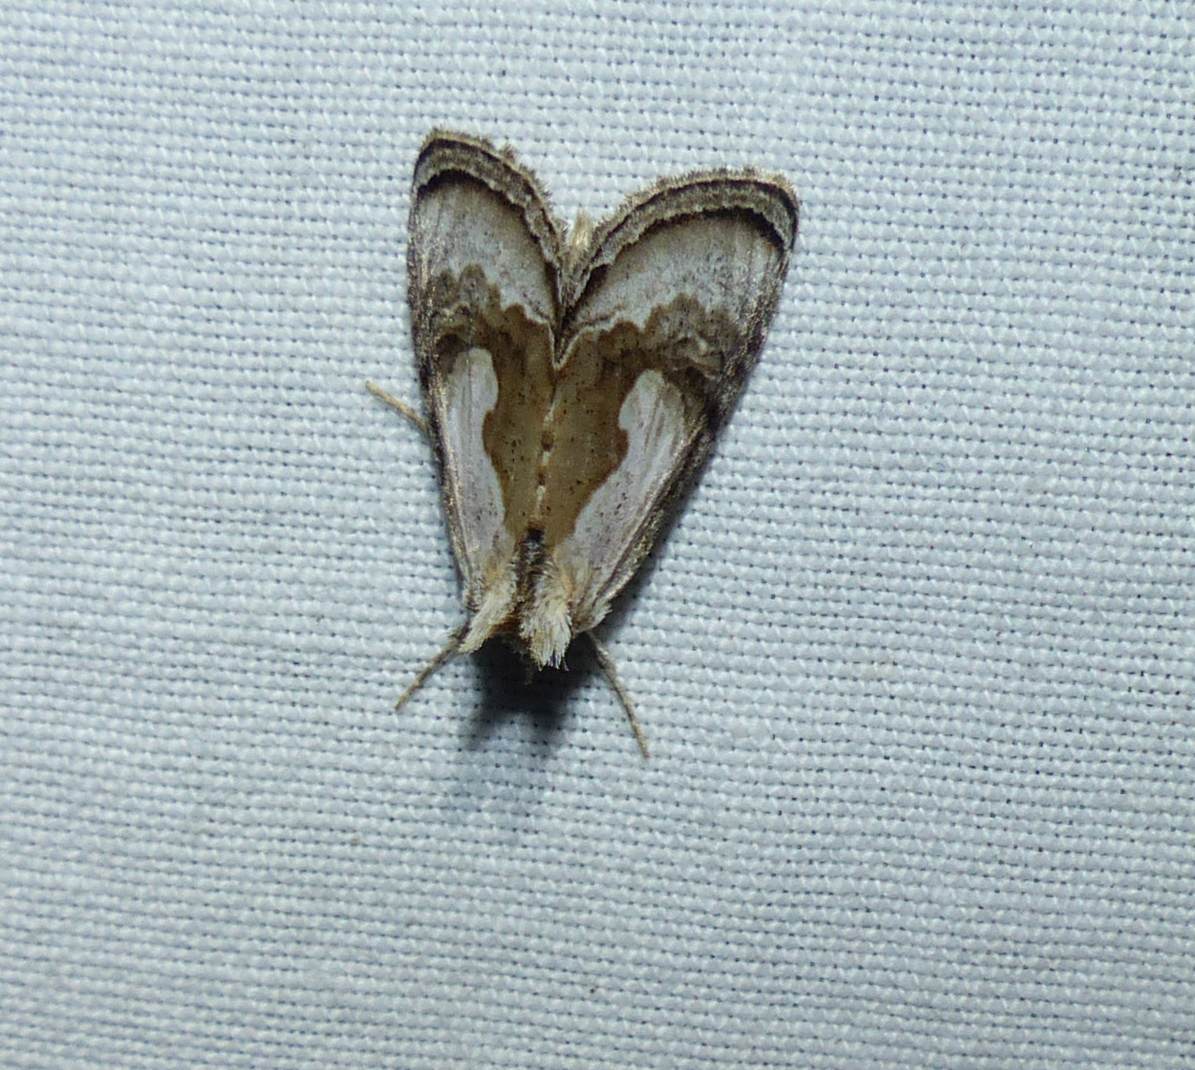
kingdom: Animalia
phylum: Arthropoda
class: Insecta
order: Lepidoptera
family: Noctuidae
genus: Chrysanympha
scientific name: Chrysanympha formosa
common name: Formosa looper moth
